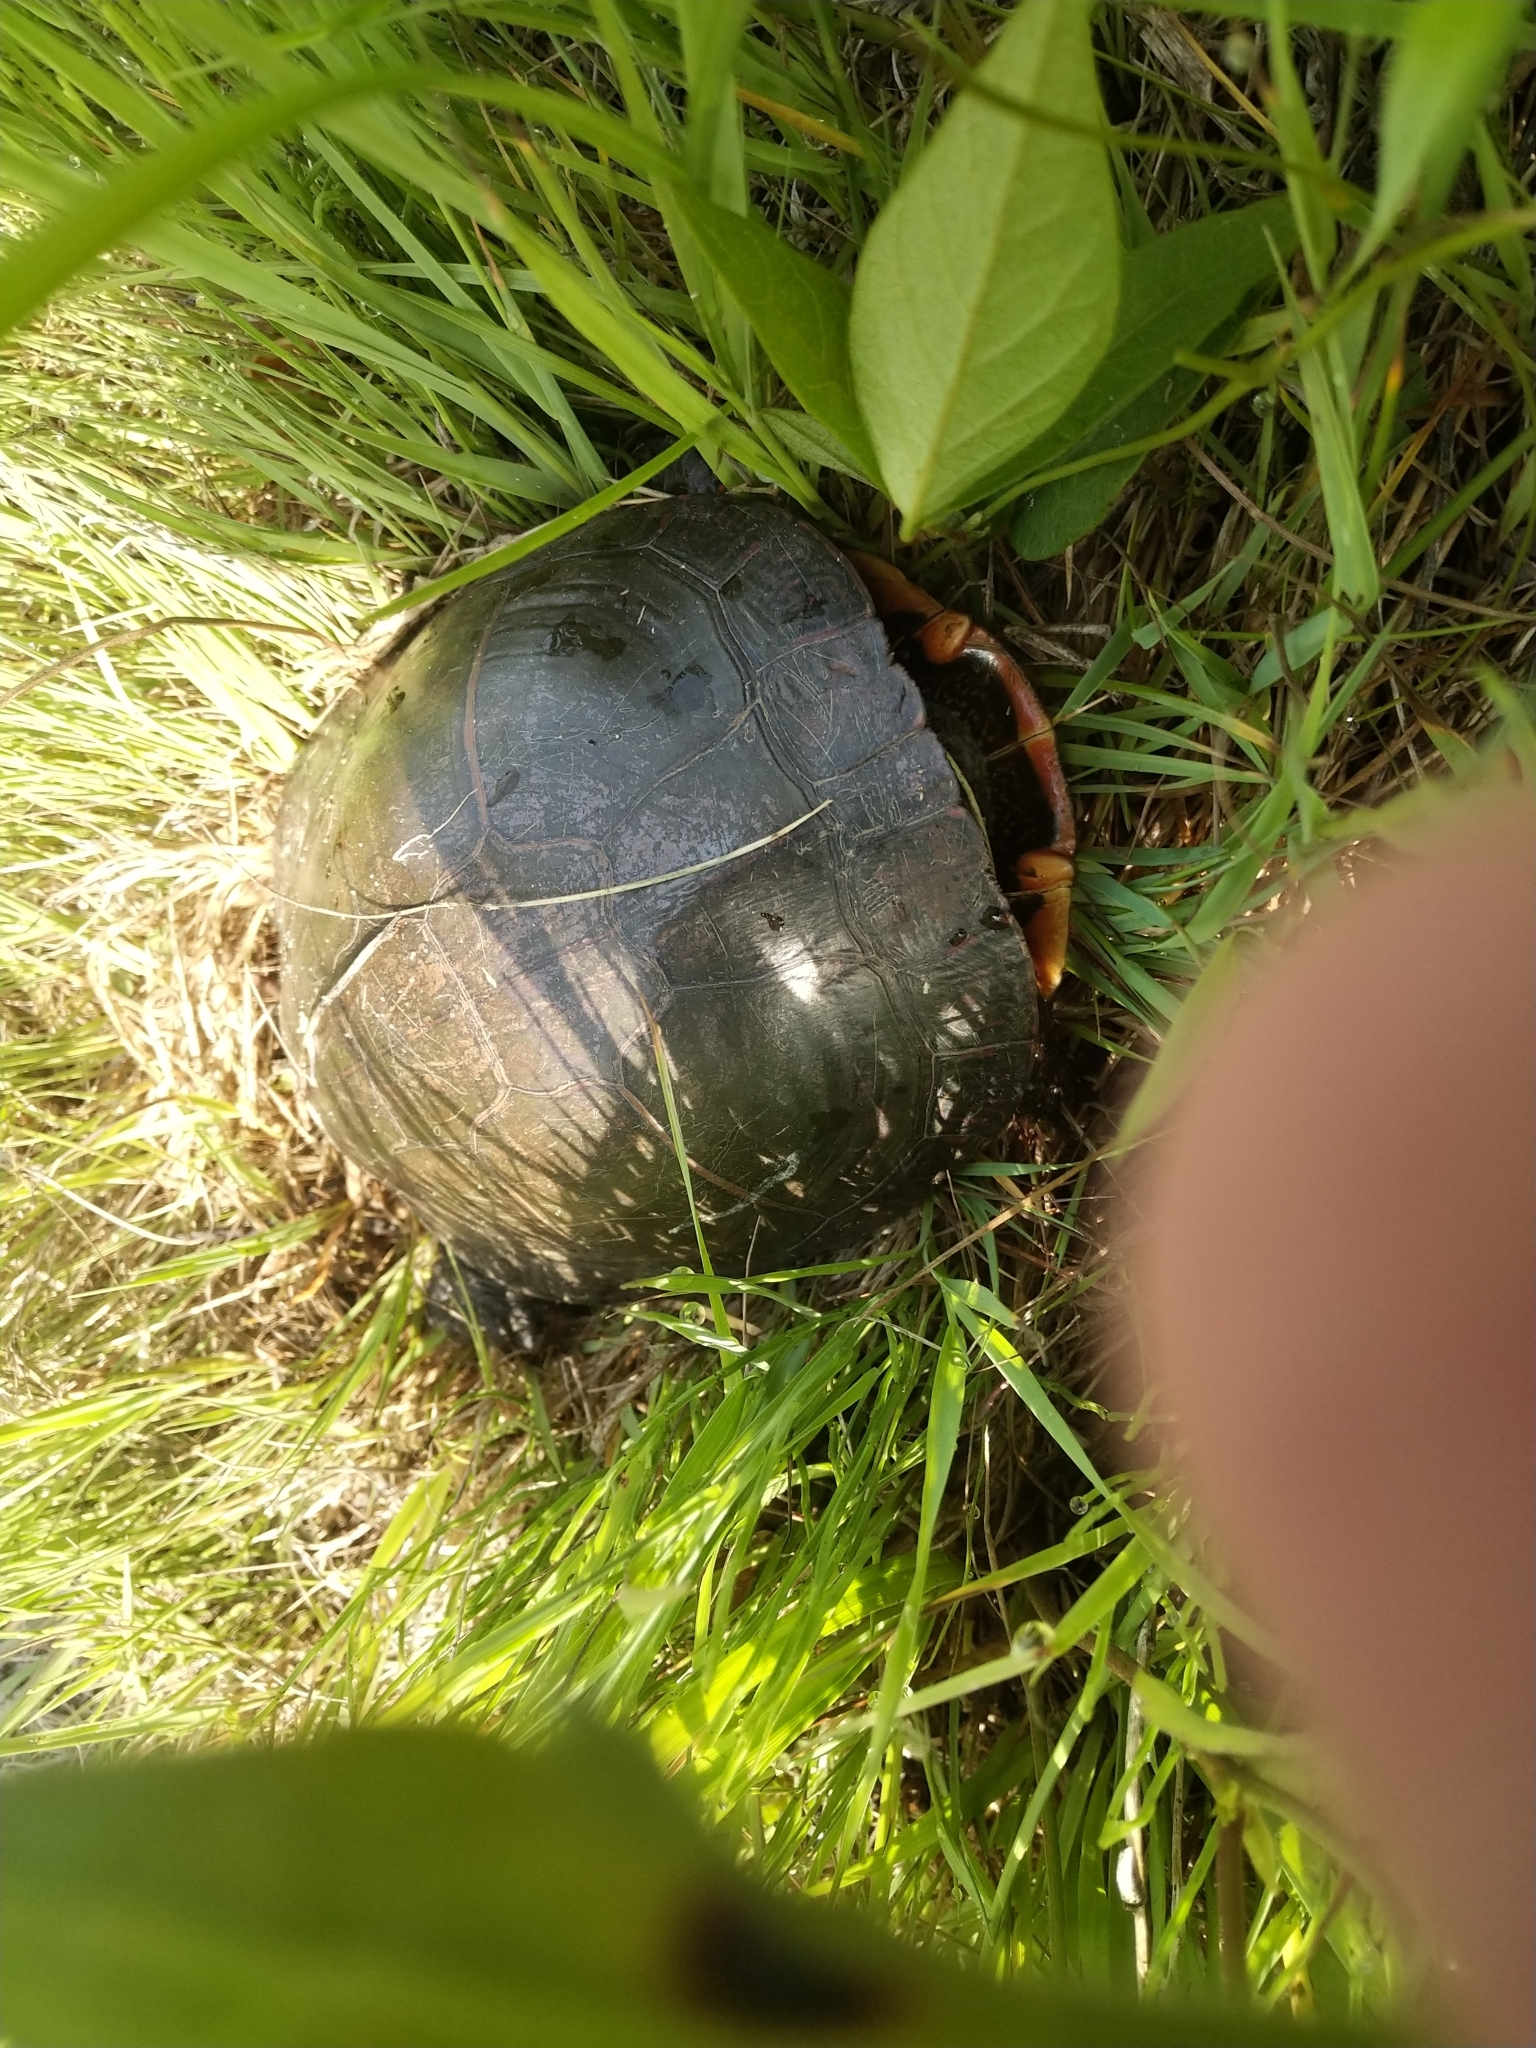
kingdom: Animalia
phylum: Chordata
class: Testudines
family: Emydidae
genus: Chrysemys
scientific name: Chrysemys picta
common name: Painted turtle
